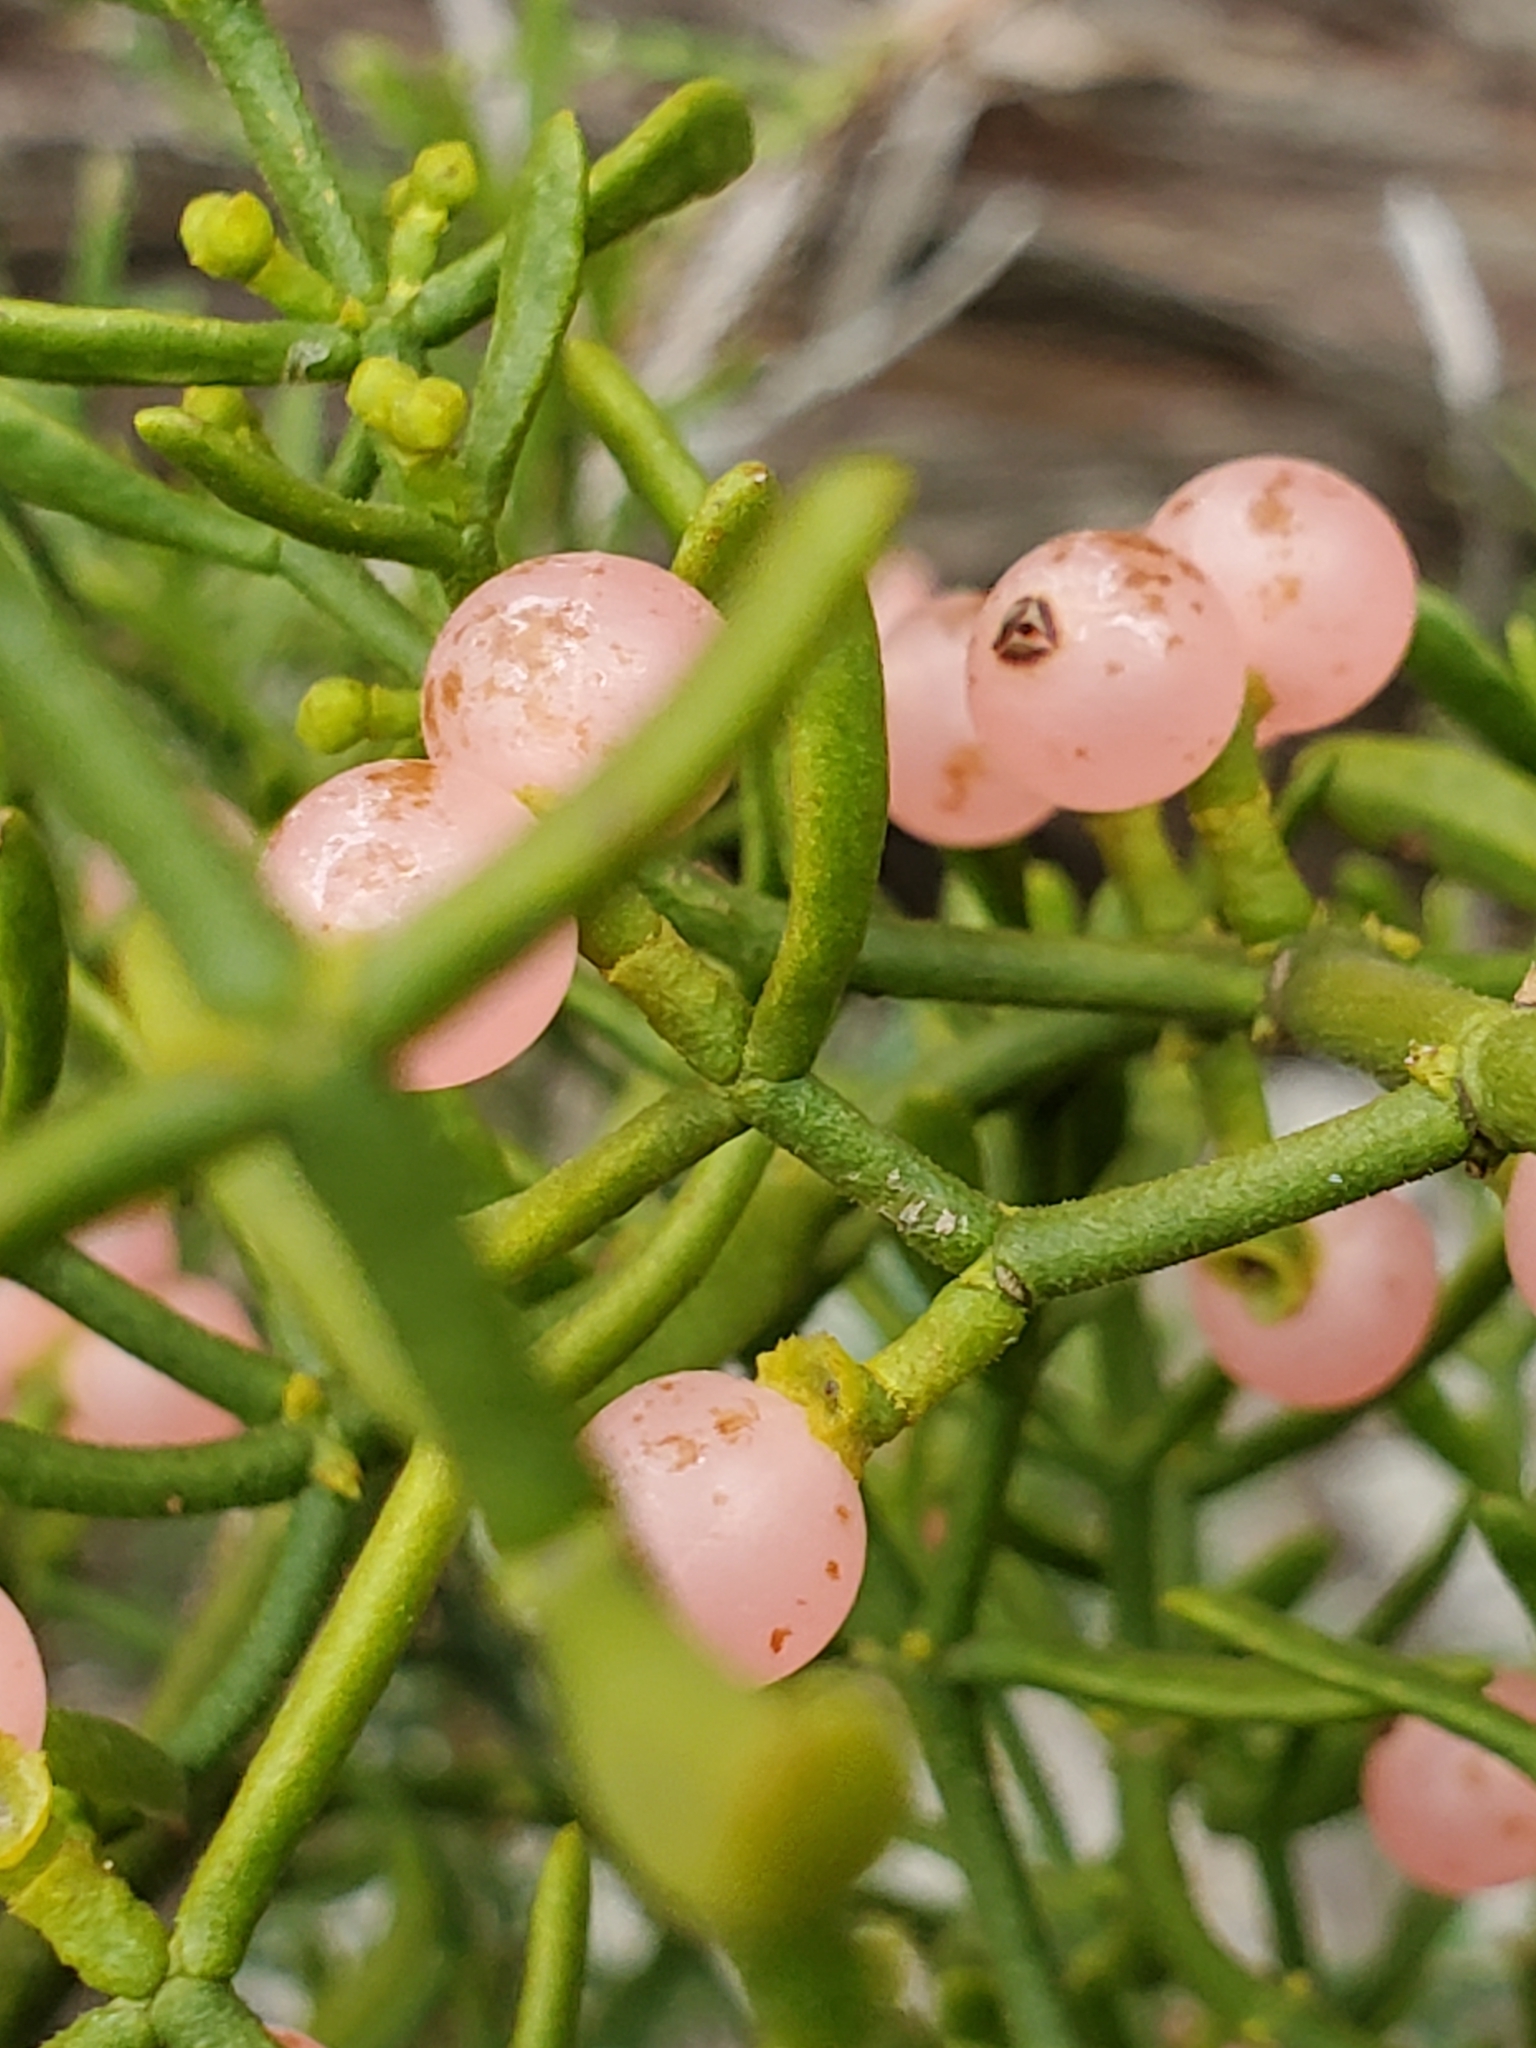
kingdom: Plantae
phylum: Tracheophyta
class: Magnoliopsida
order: Santalales
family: Viscaceae
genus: Phoradendron
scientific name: Phoradendron hawksworthii
